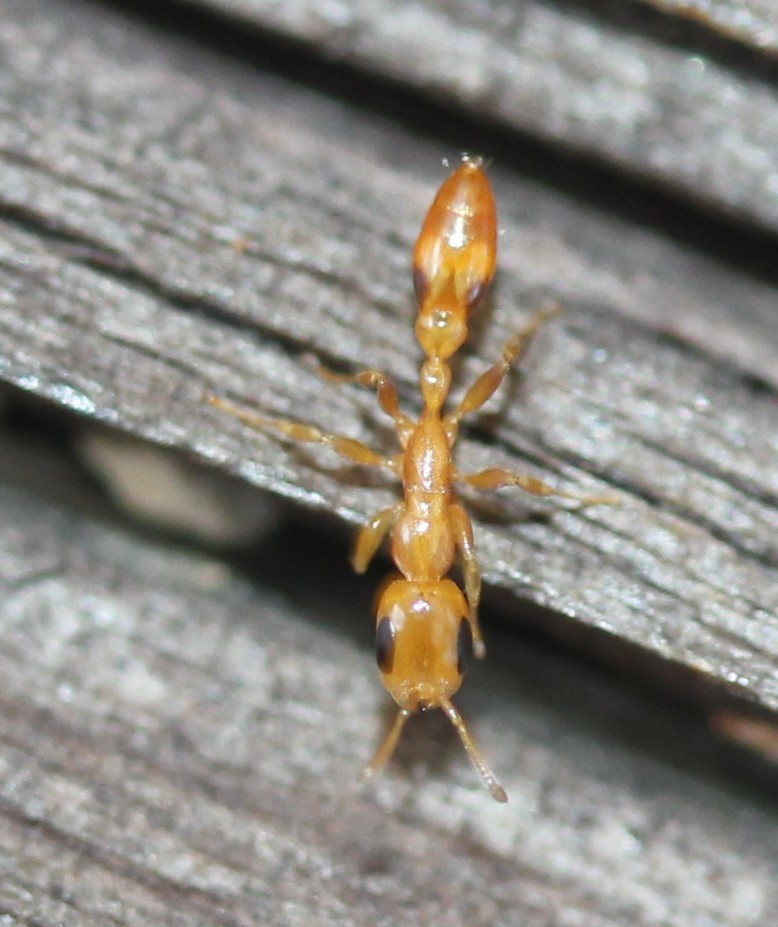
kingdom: Animalia
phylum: Arthropoda
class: Insecta
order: Hymenoptera
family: Formicidae
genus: Pseudomyrmex
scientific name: Pseudomyrmex simplex
